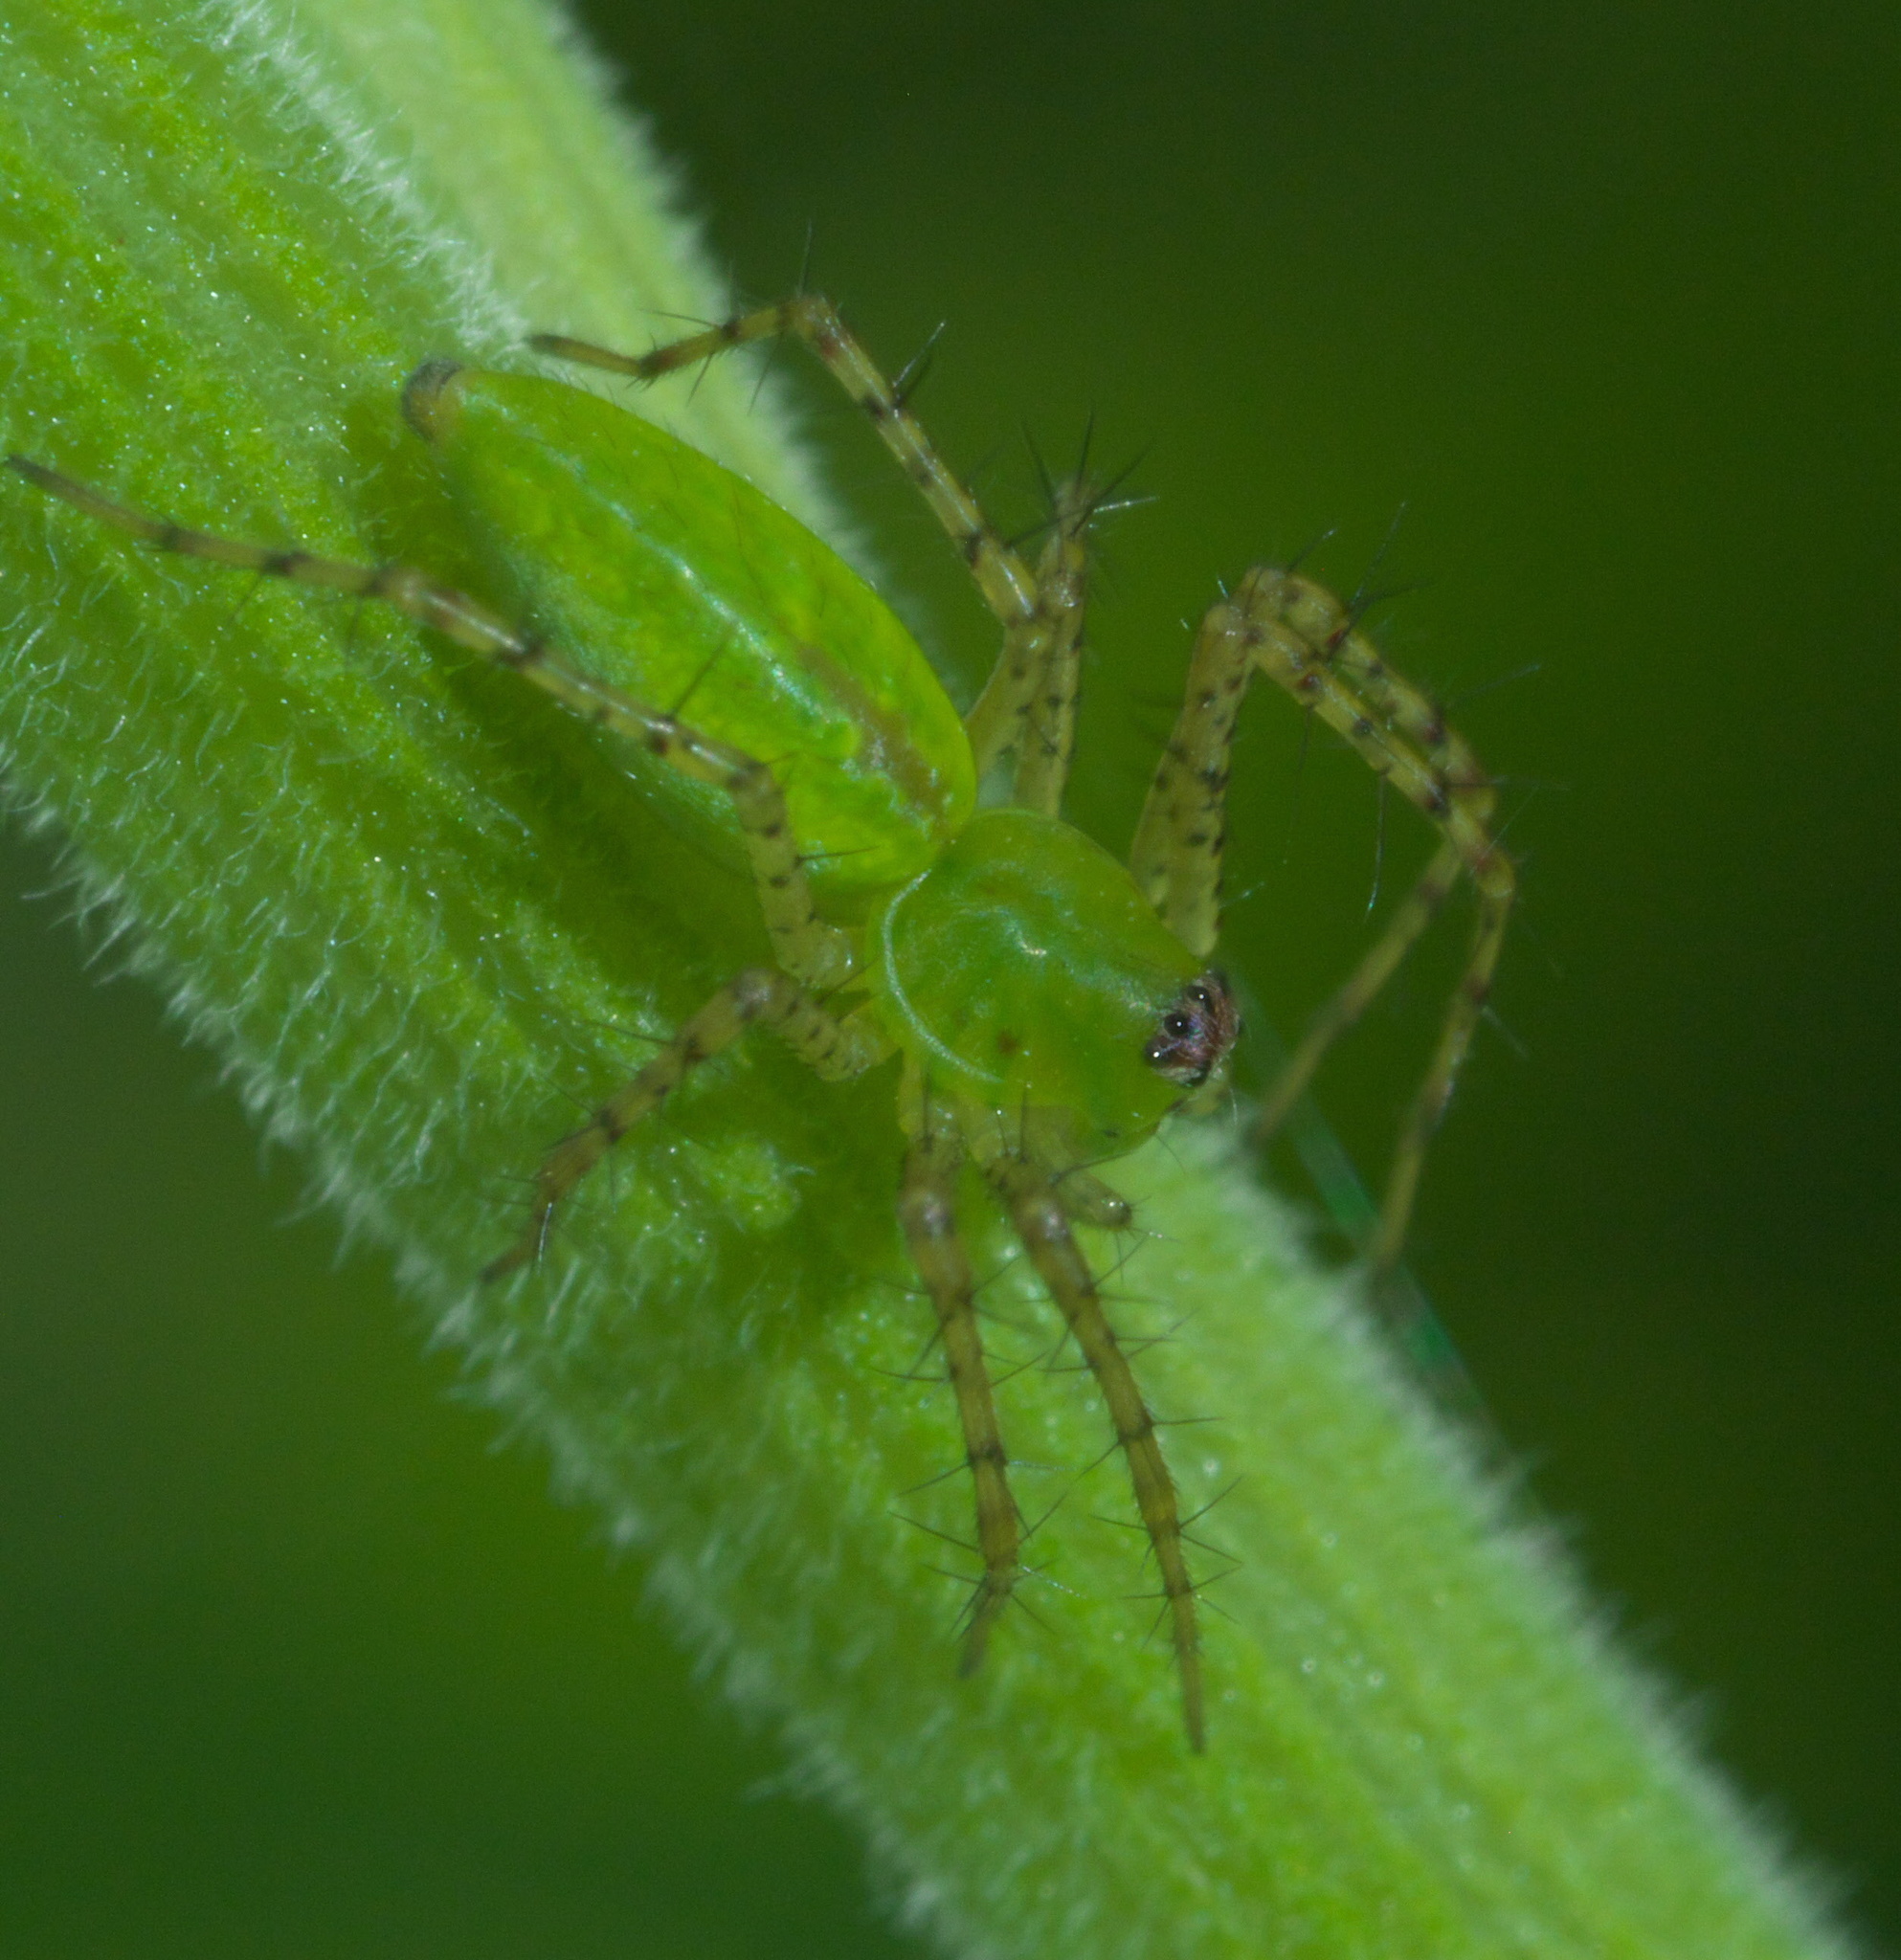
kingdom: Animalia
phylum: Arthropoda
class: Arachnida
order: Araneae
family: Oxyopidae
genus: Peucetia
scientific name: Peucetia viridans
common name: Lynx spiders
